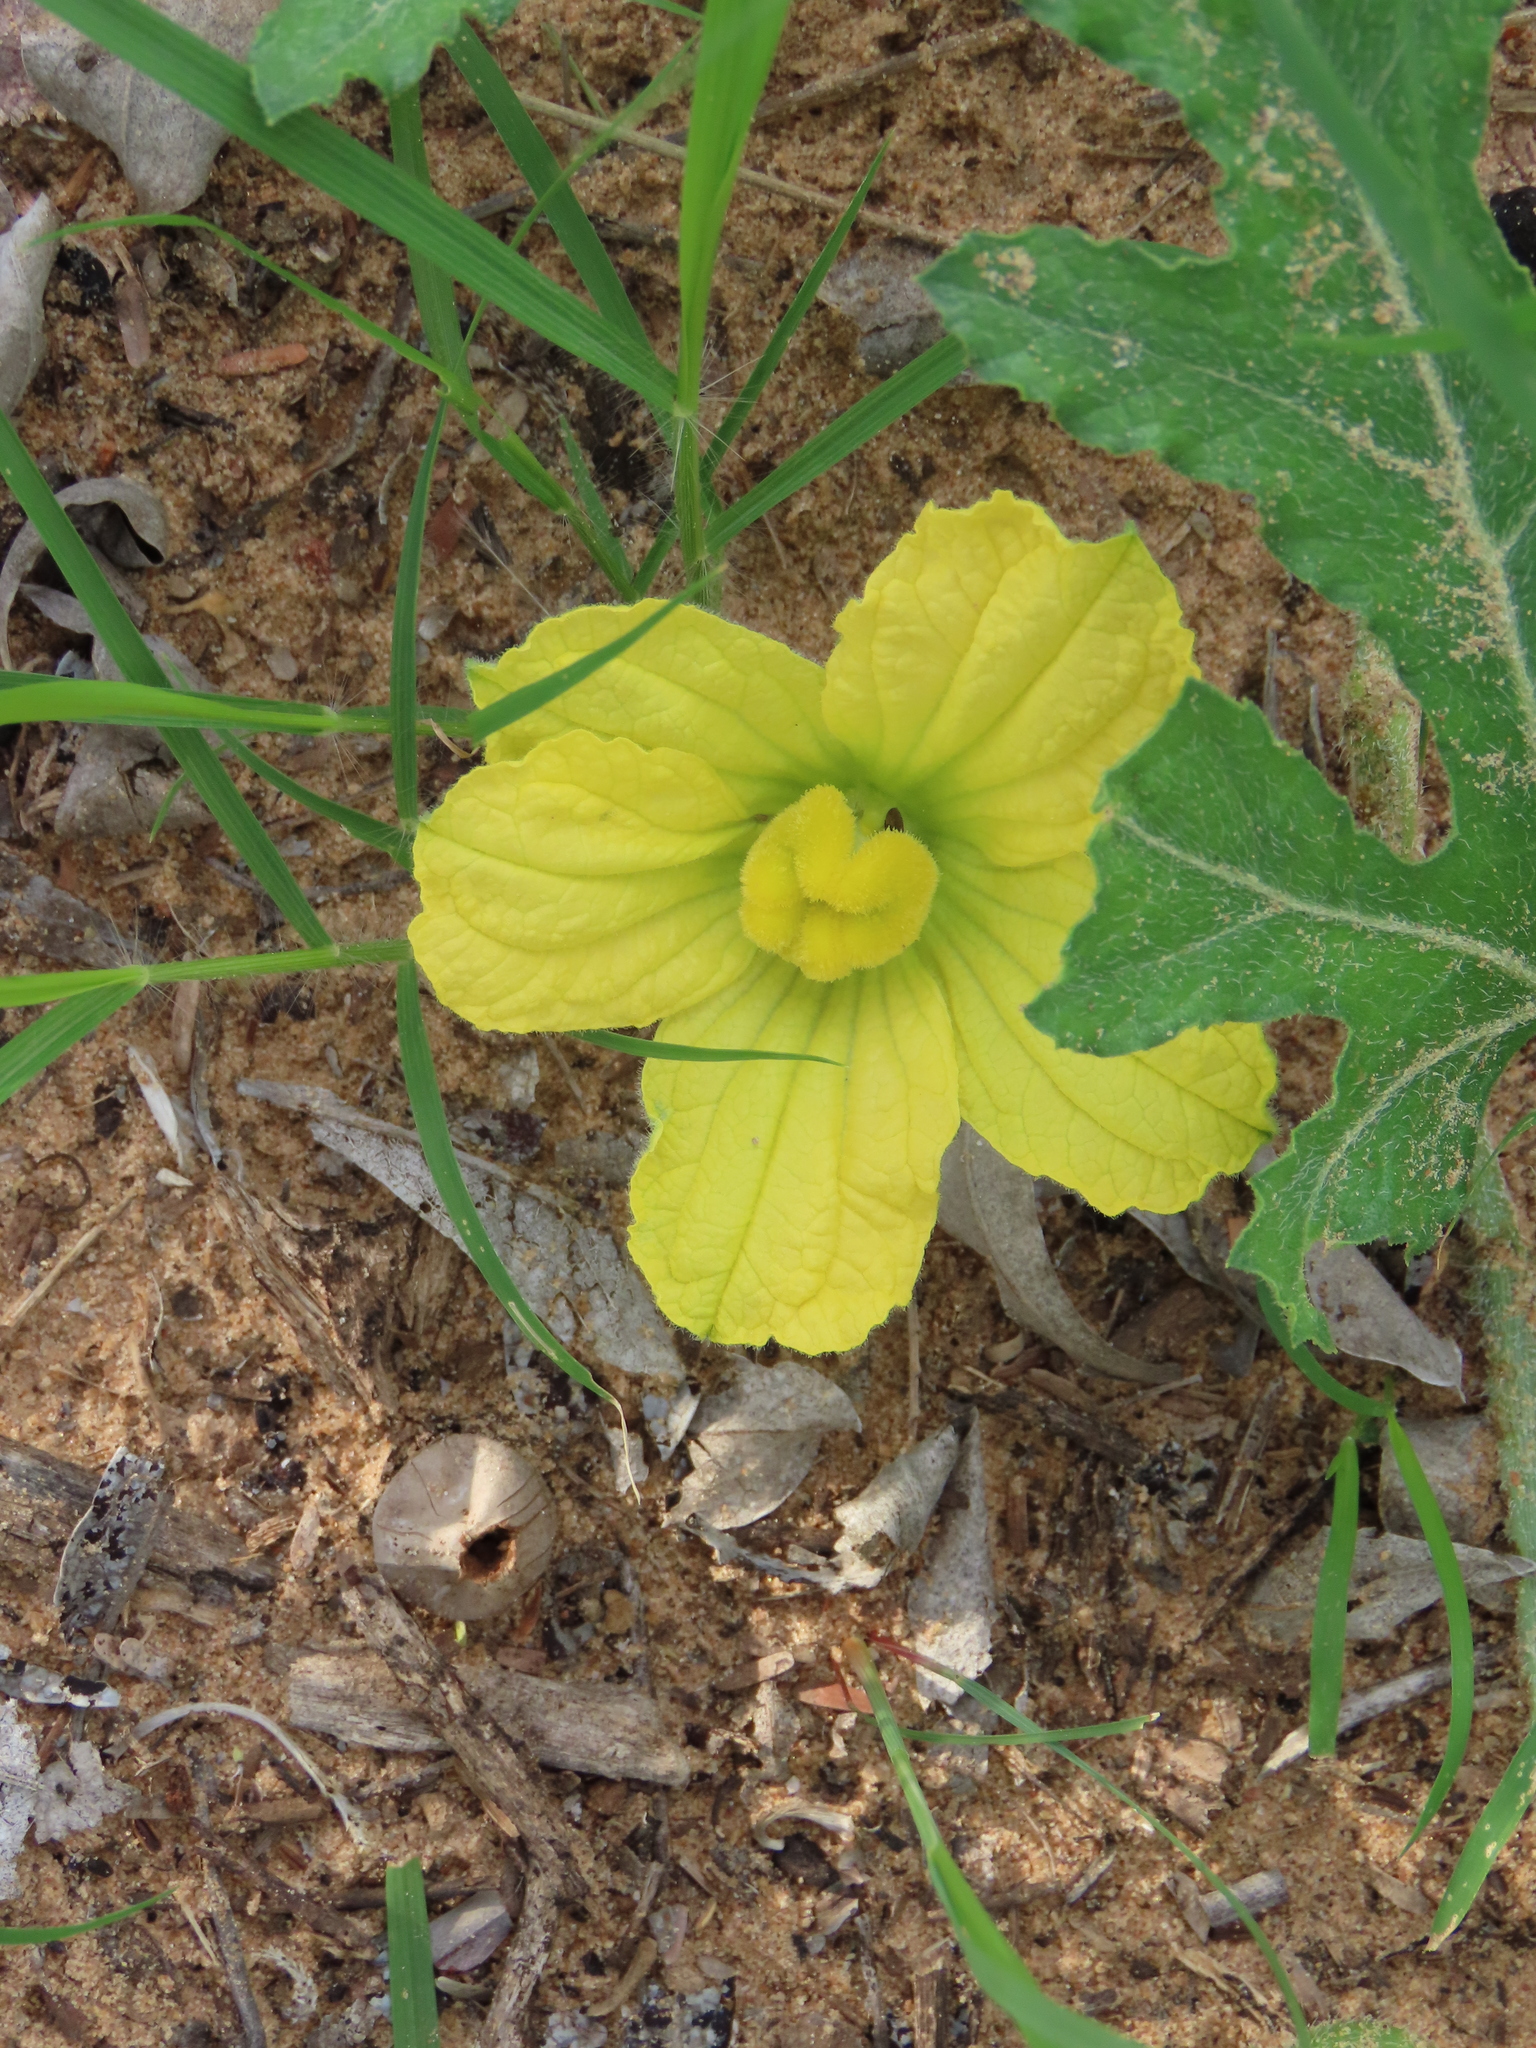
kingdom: Plantae
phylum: Tracheophyta
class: Magnoliopsida
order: Cucurbitales
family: Cucurbitaceae
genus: Citrullus
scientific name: Citrullus naudinianus
